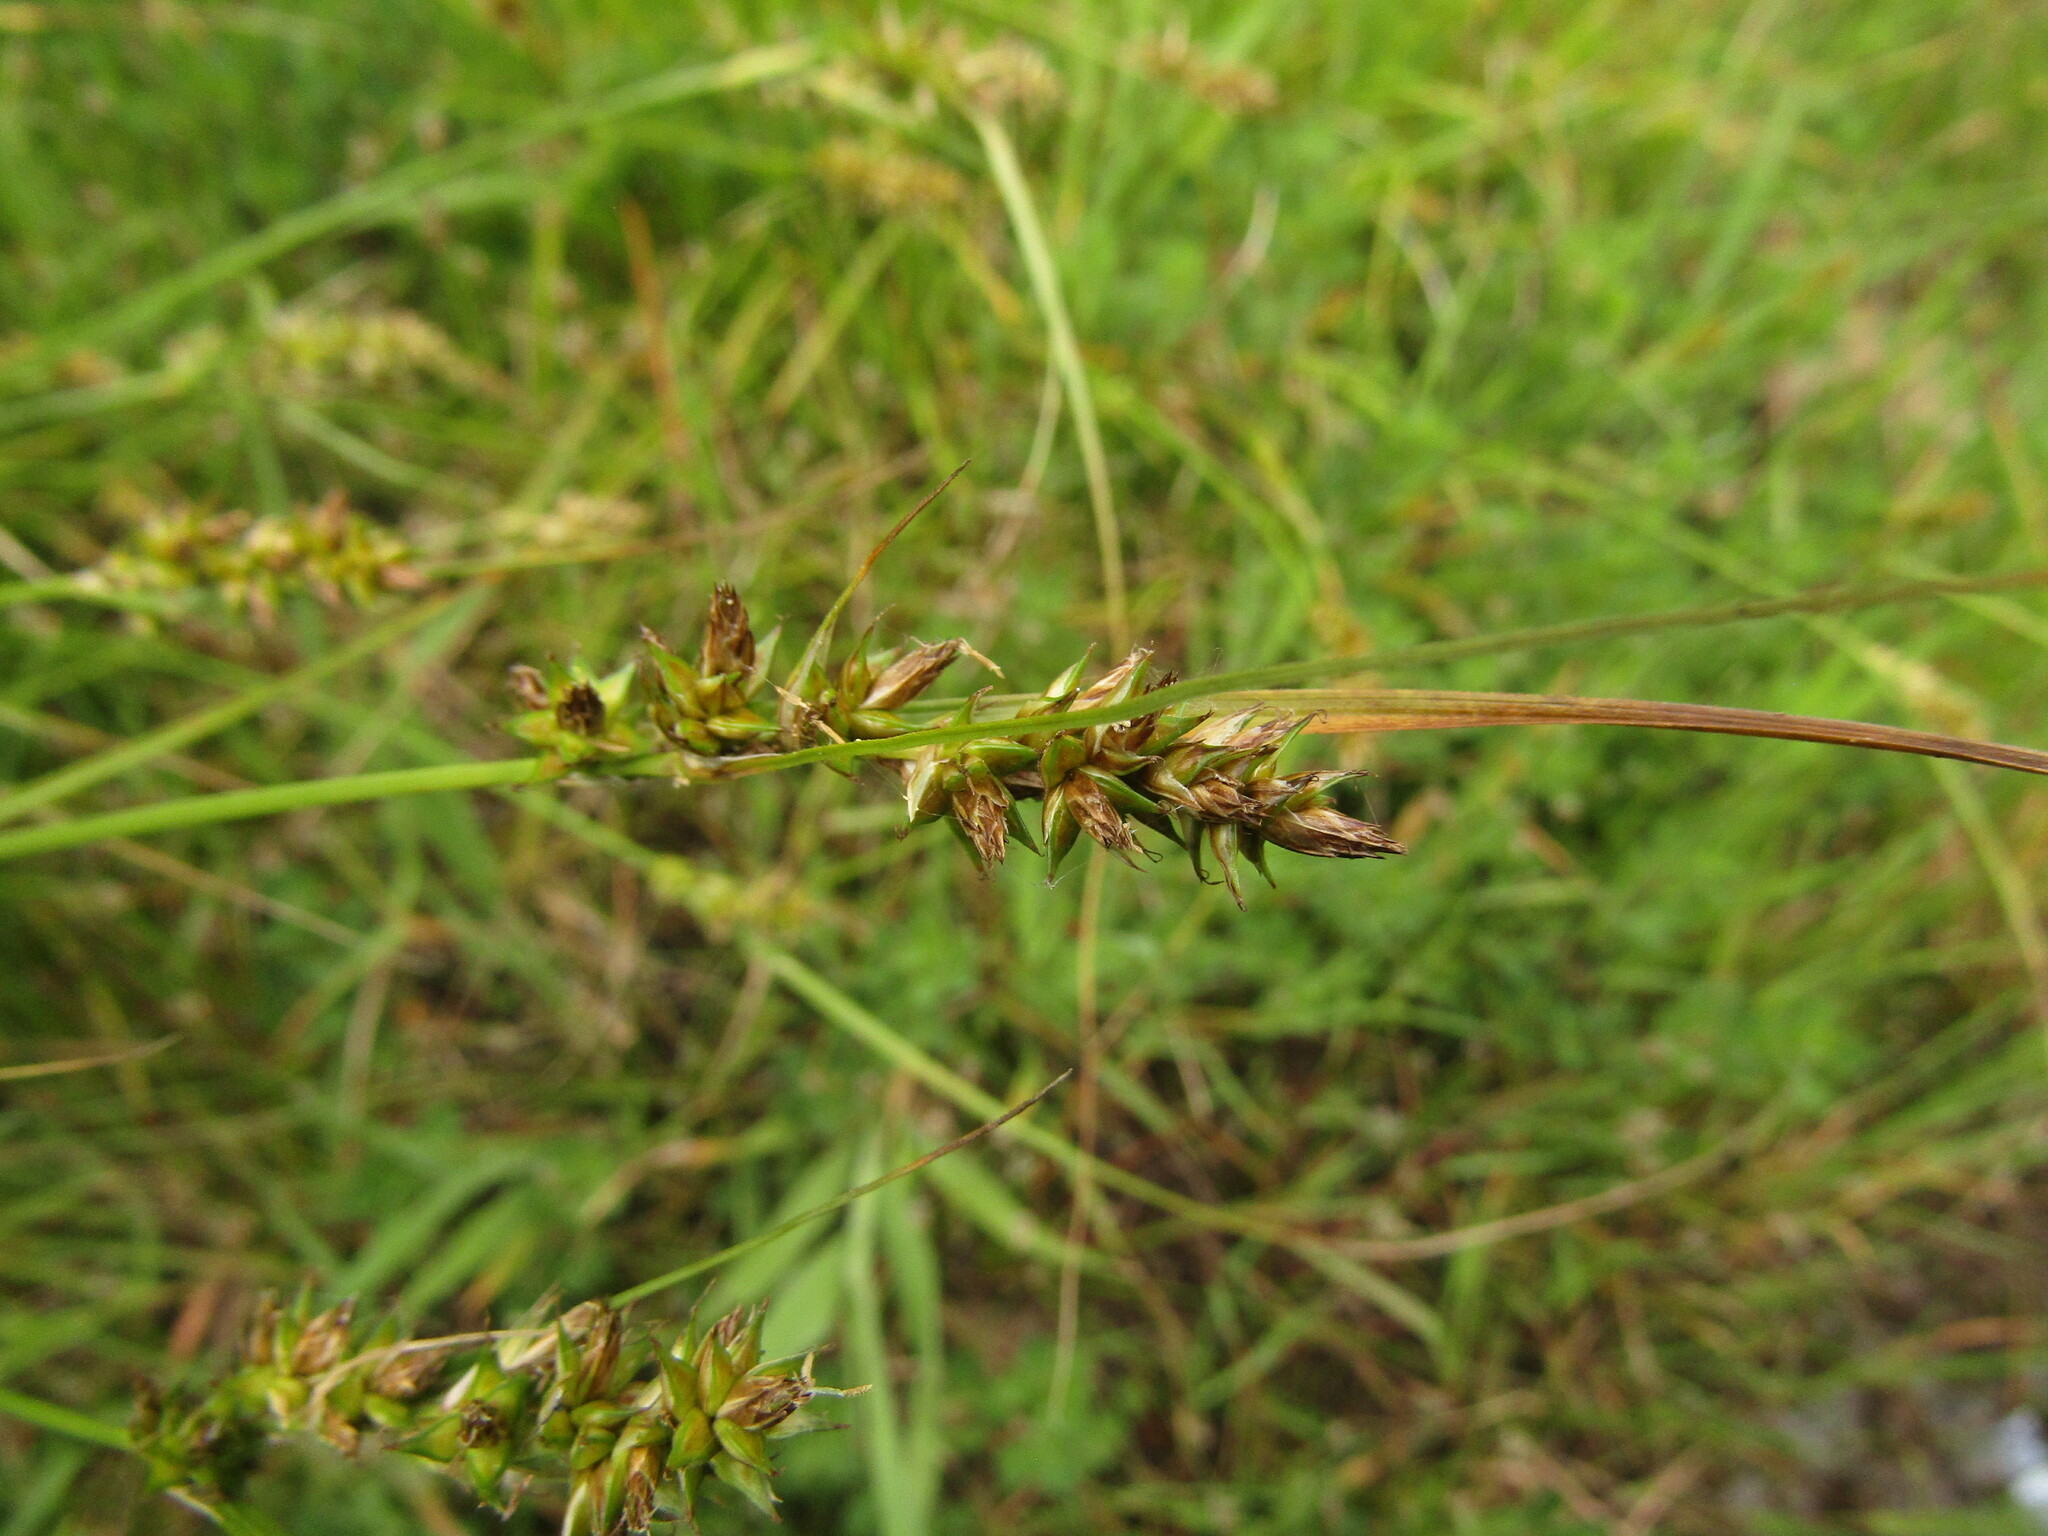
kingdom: Plantae
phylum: Tracheophyta
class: Liliopsida
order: Poales
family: Cyperaceae
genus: Carex
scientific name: Carex bracteosa
